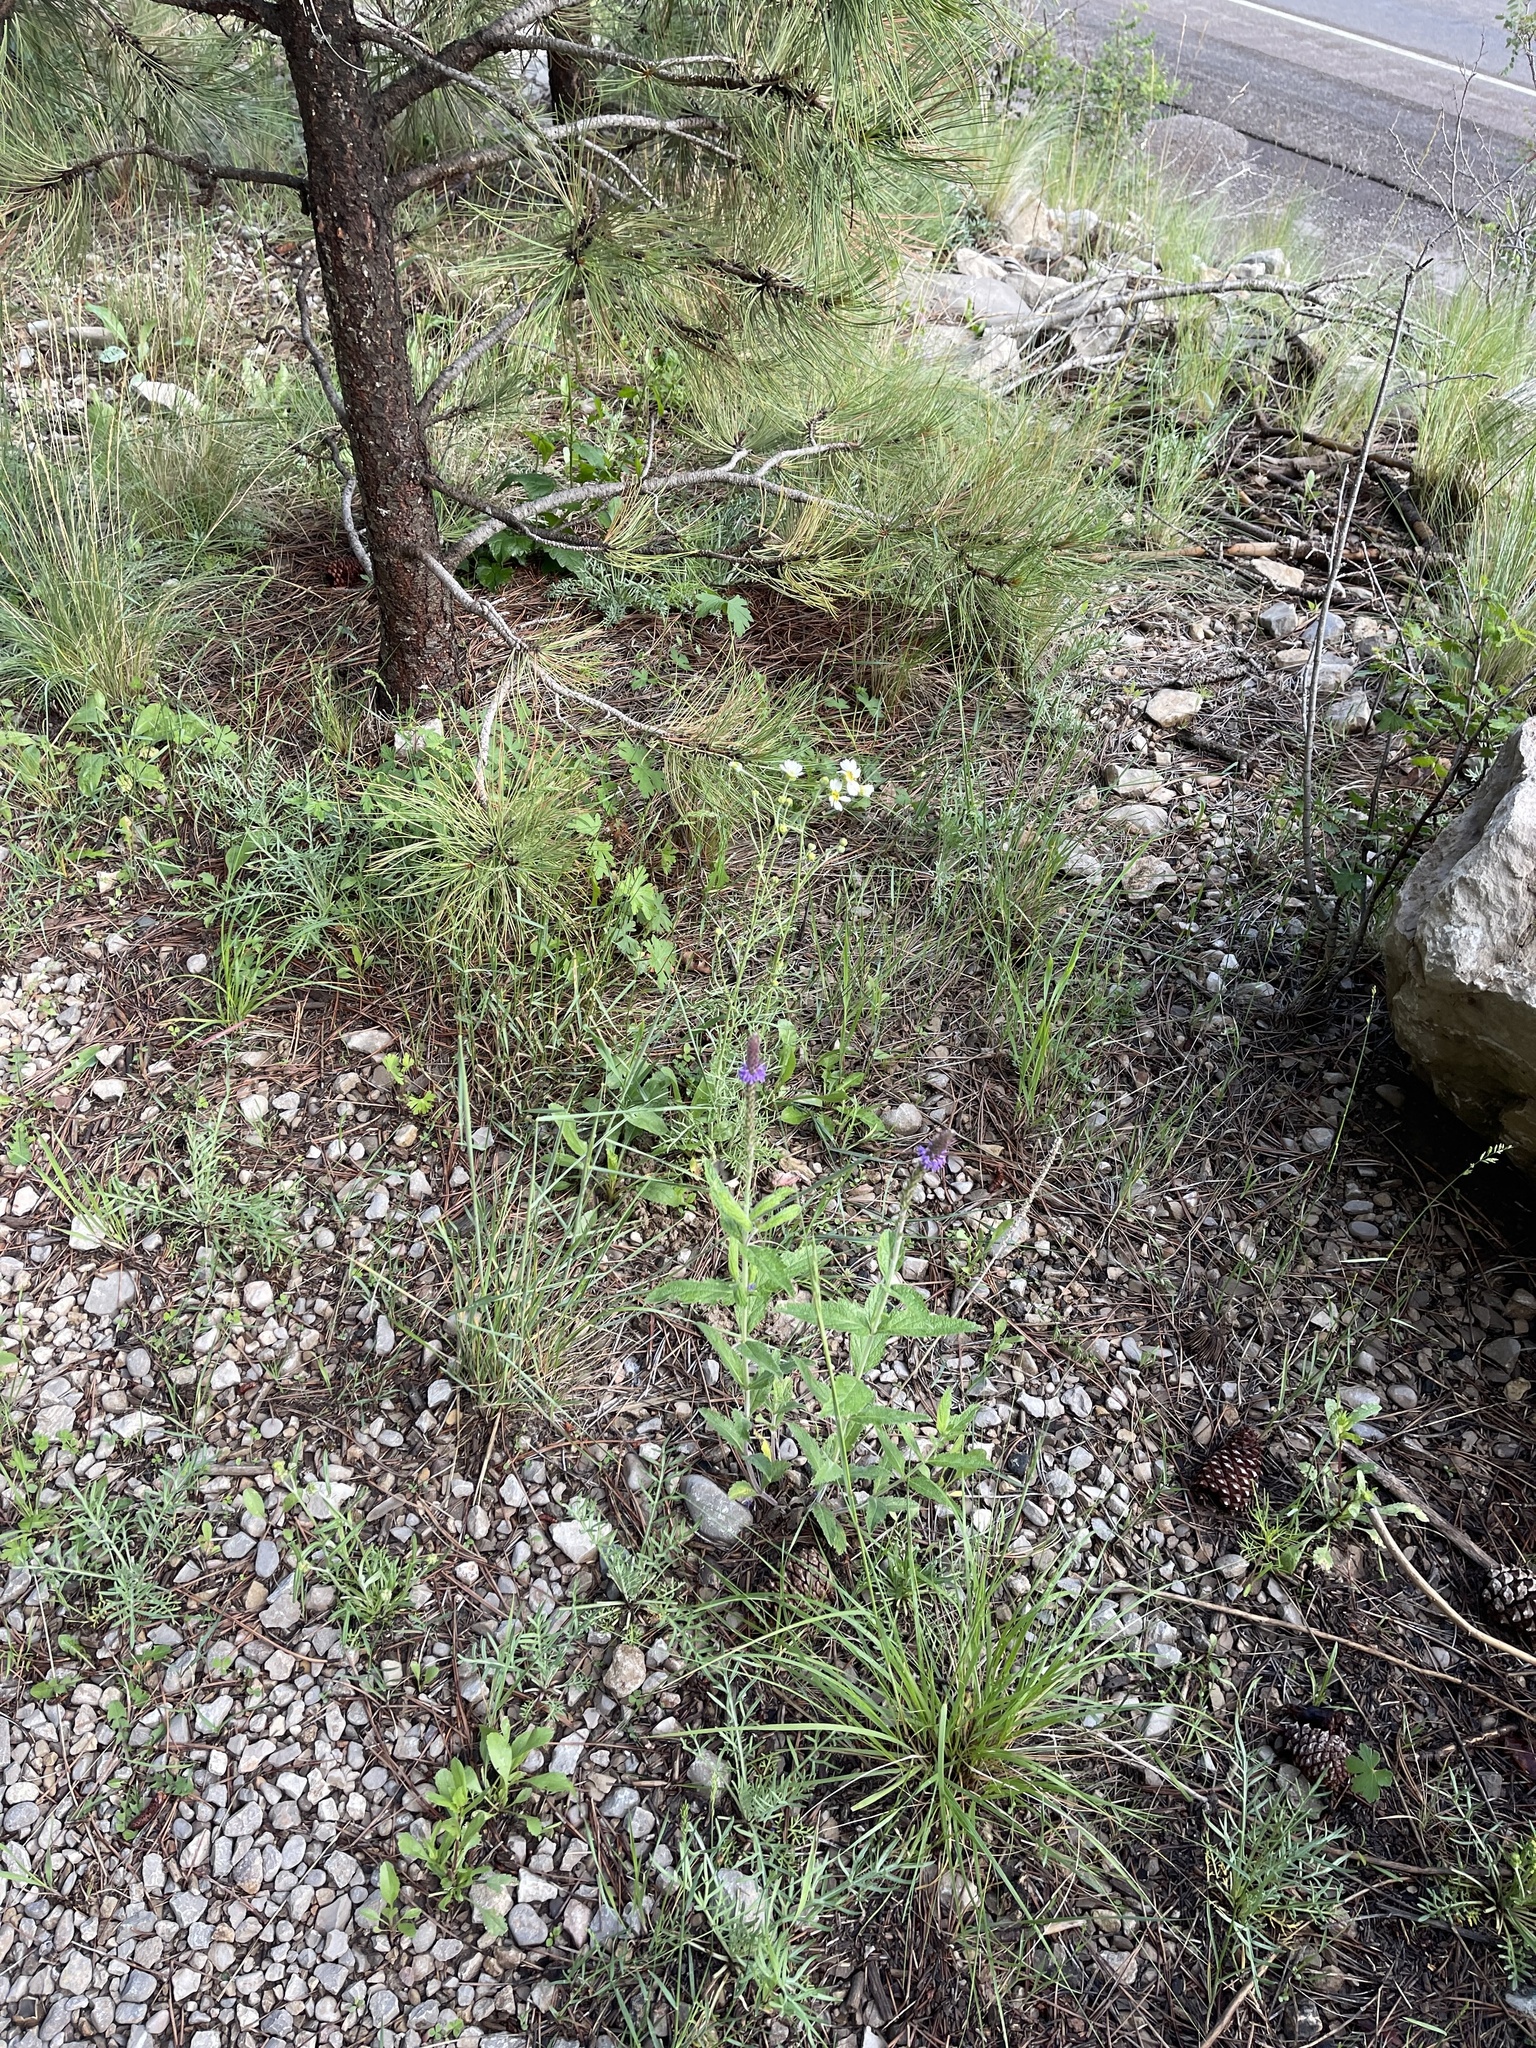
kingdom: Plantae
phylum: Tracheophyta
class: Magnoliopsida
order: Lamiales
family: Verbenaceae
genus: Verbena
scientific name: Verbena macdougalii
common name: New mexico vervain
